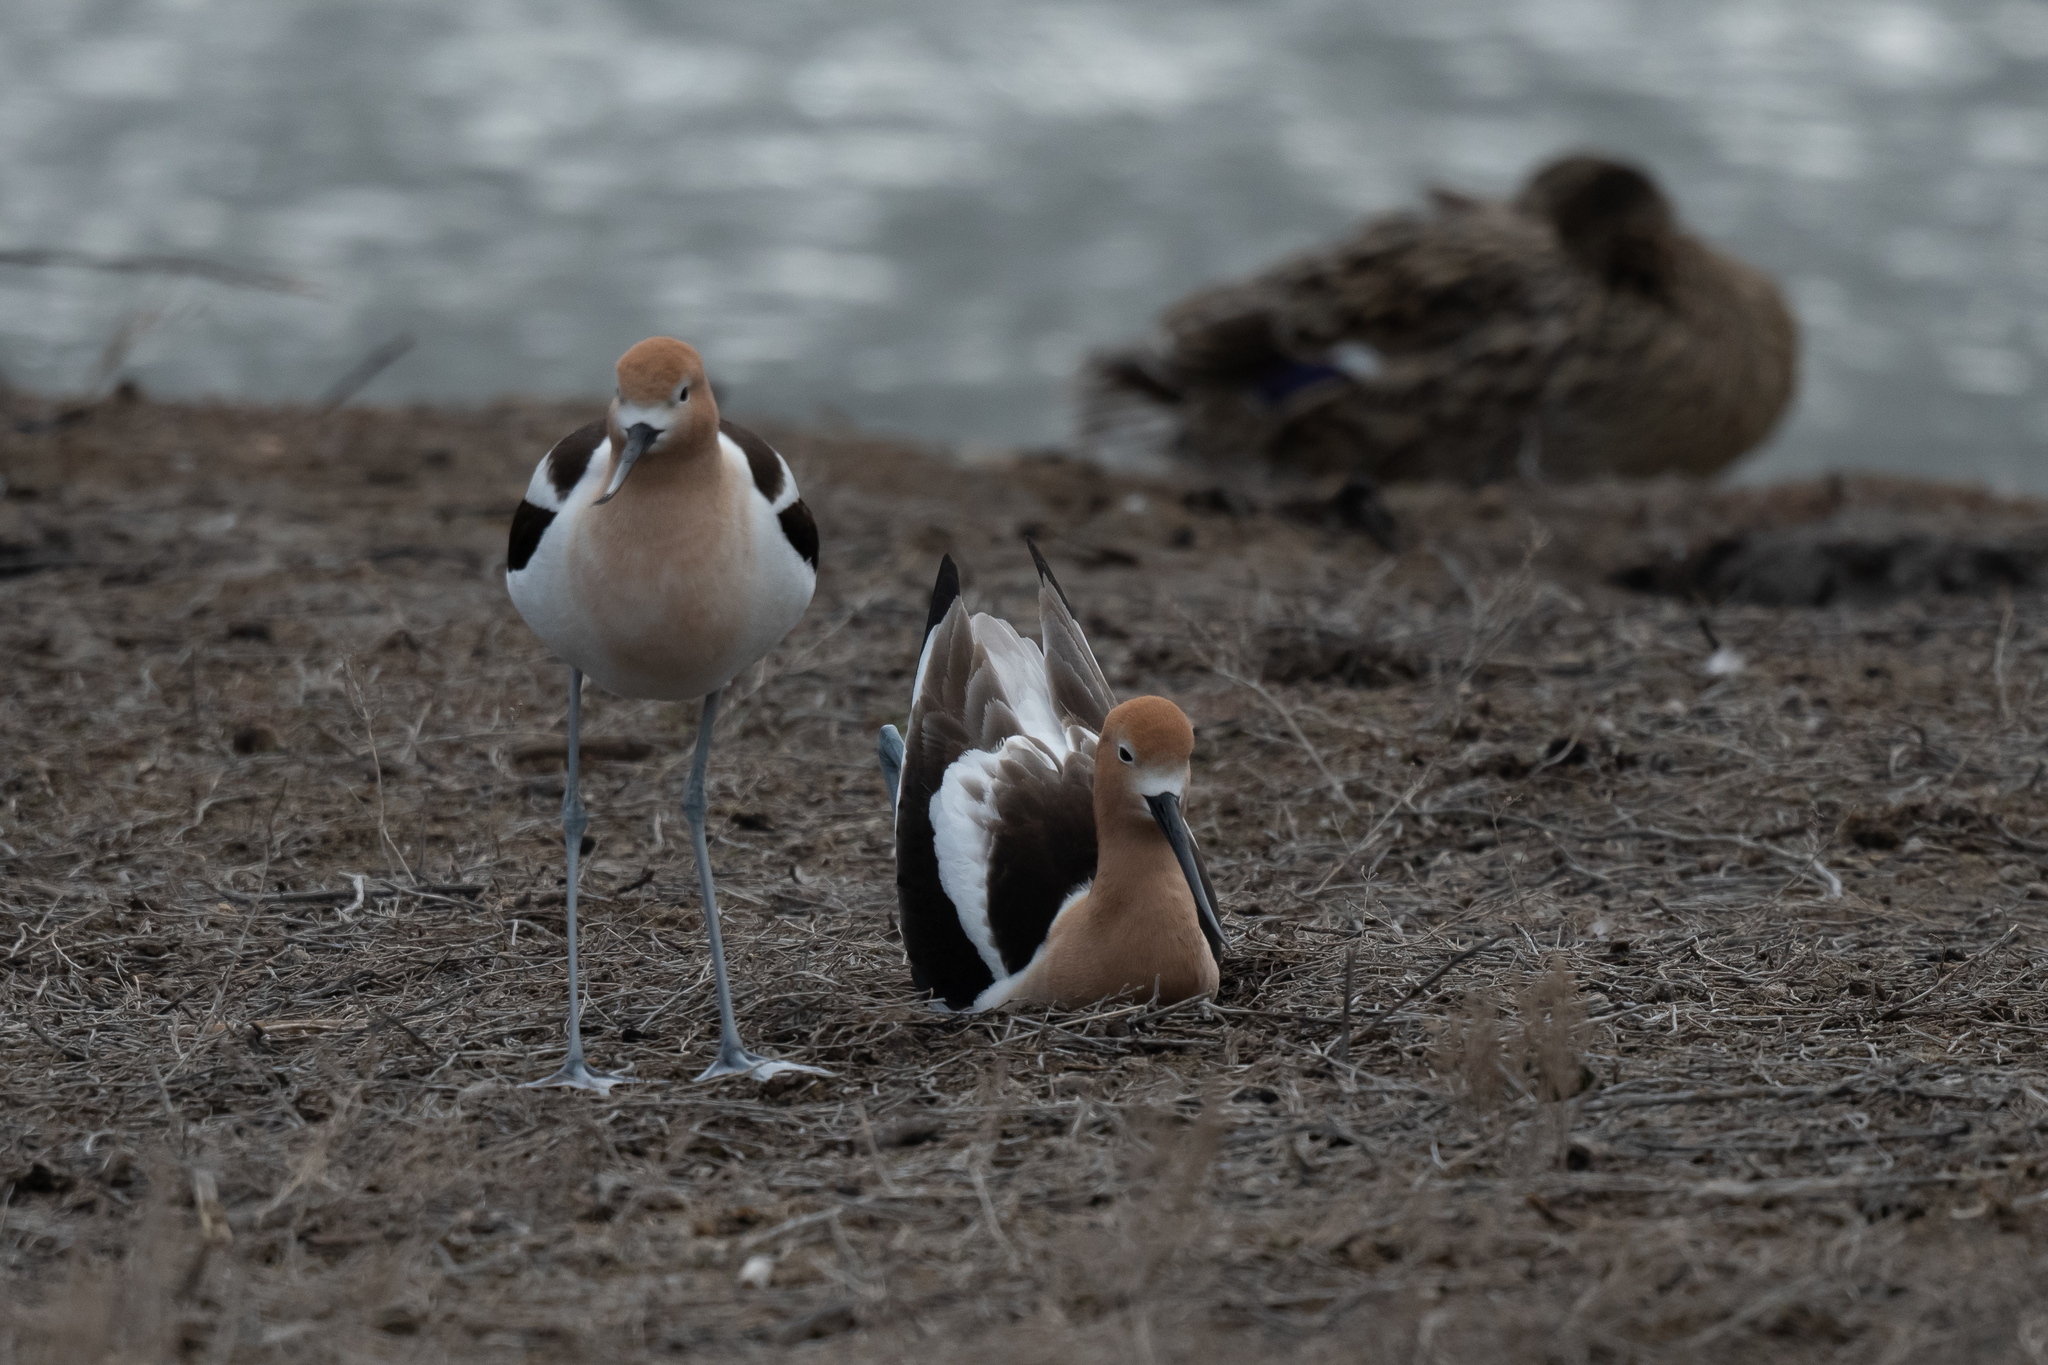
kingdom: Animalia
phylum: Chordata
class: Aves
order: Charadriiformes
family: Recurvirostridae
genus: Recurvirostra
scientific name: Recurvirostra americana
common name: American avocet
